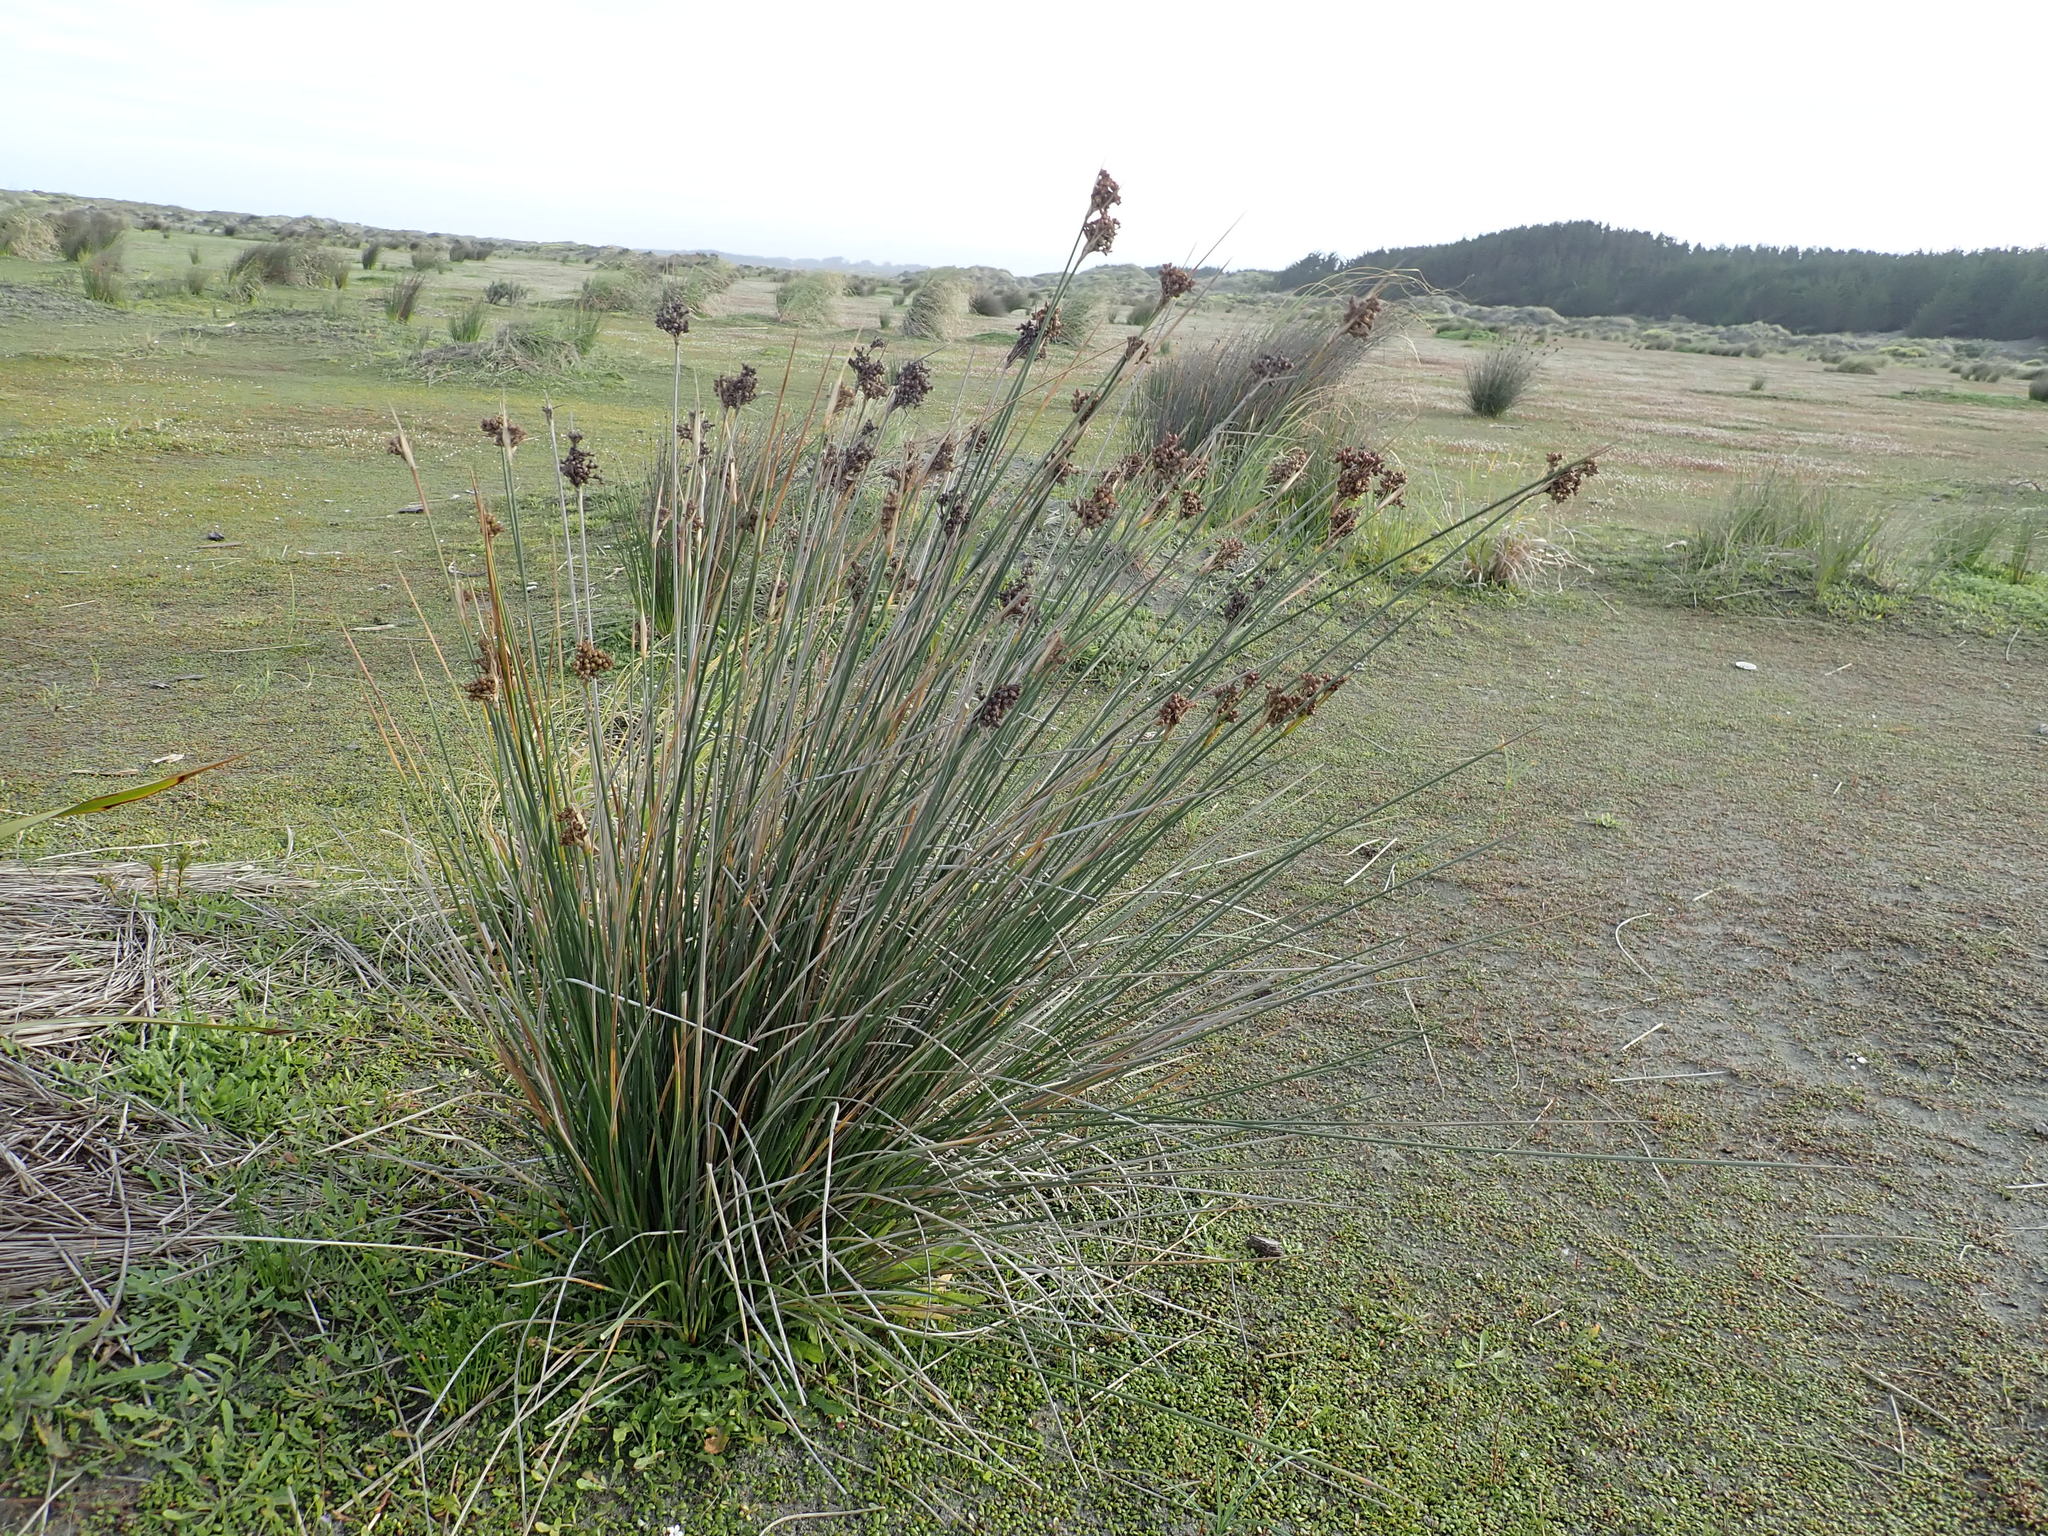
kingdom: Plantae
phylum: Tracheophyta
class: Liliopsida
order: Poales
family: Juncaceae
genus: Juncus
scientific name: Juncus acutus
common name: Sharp rush
